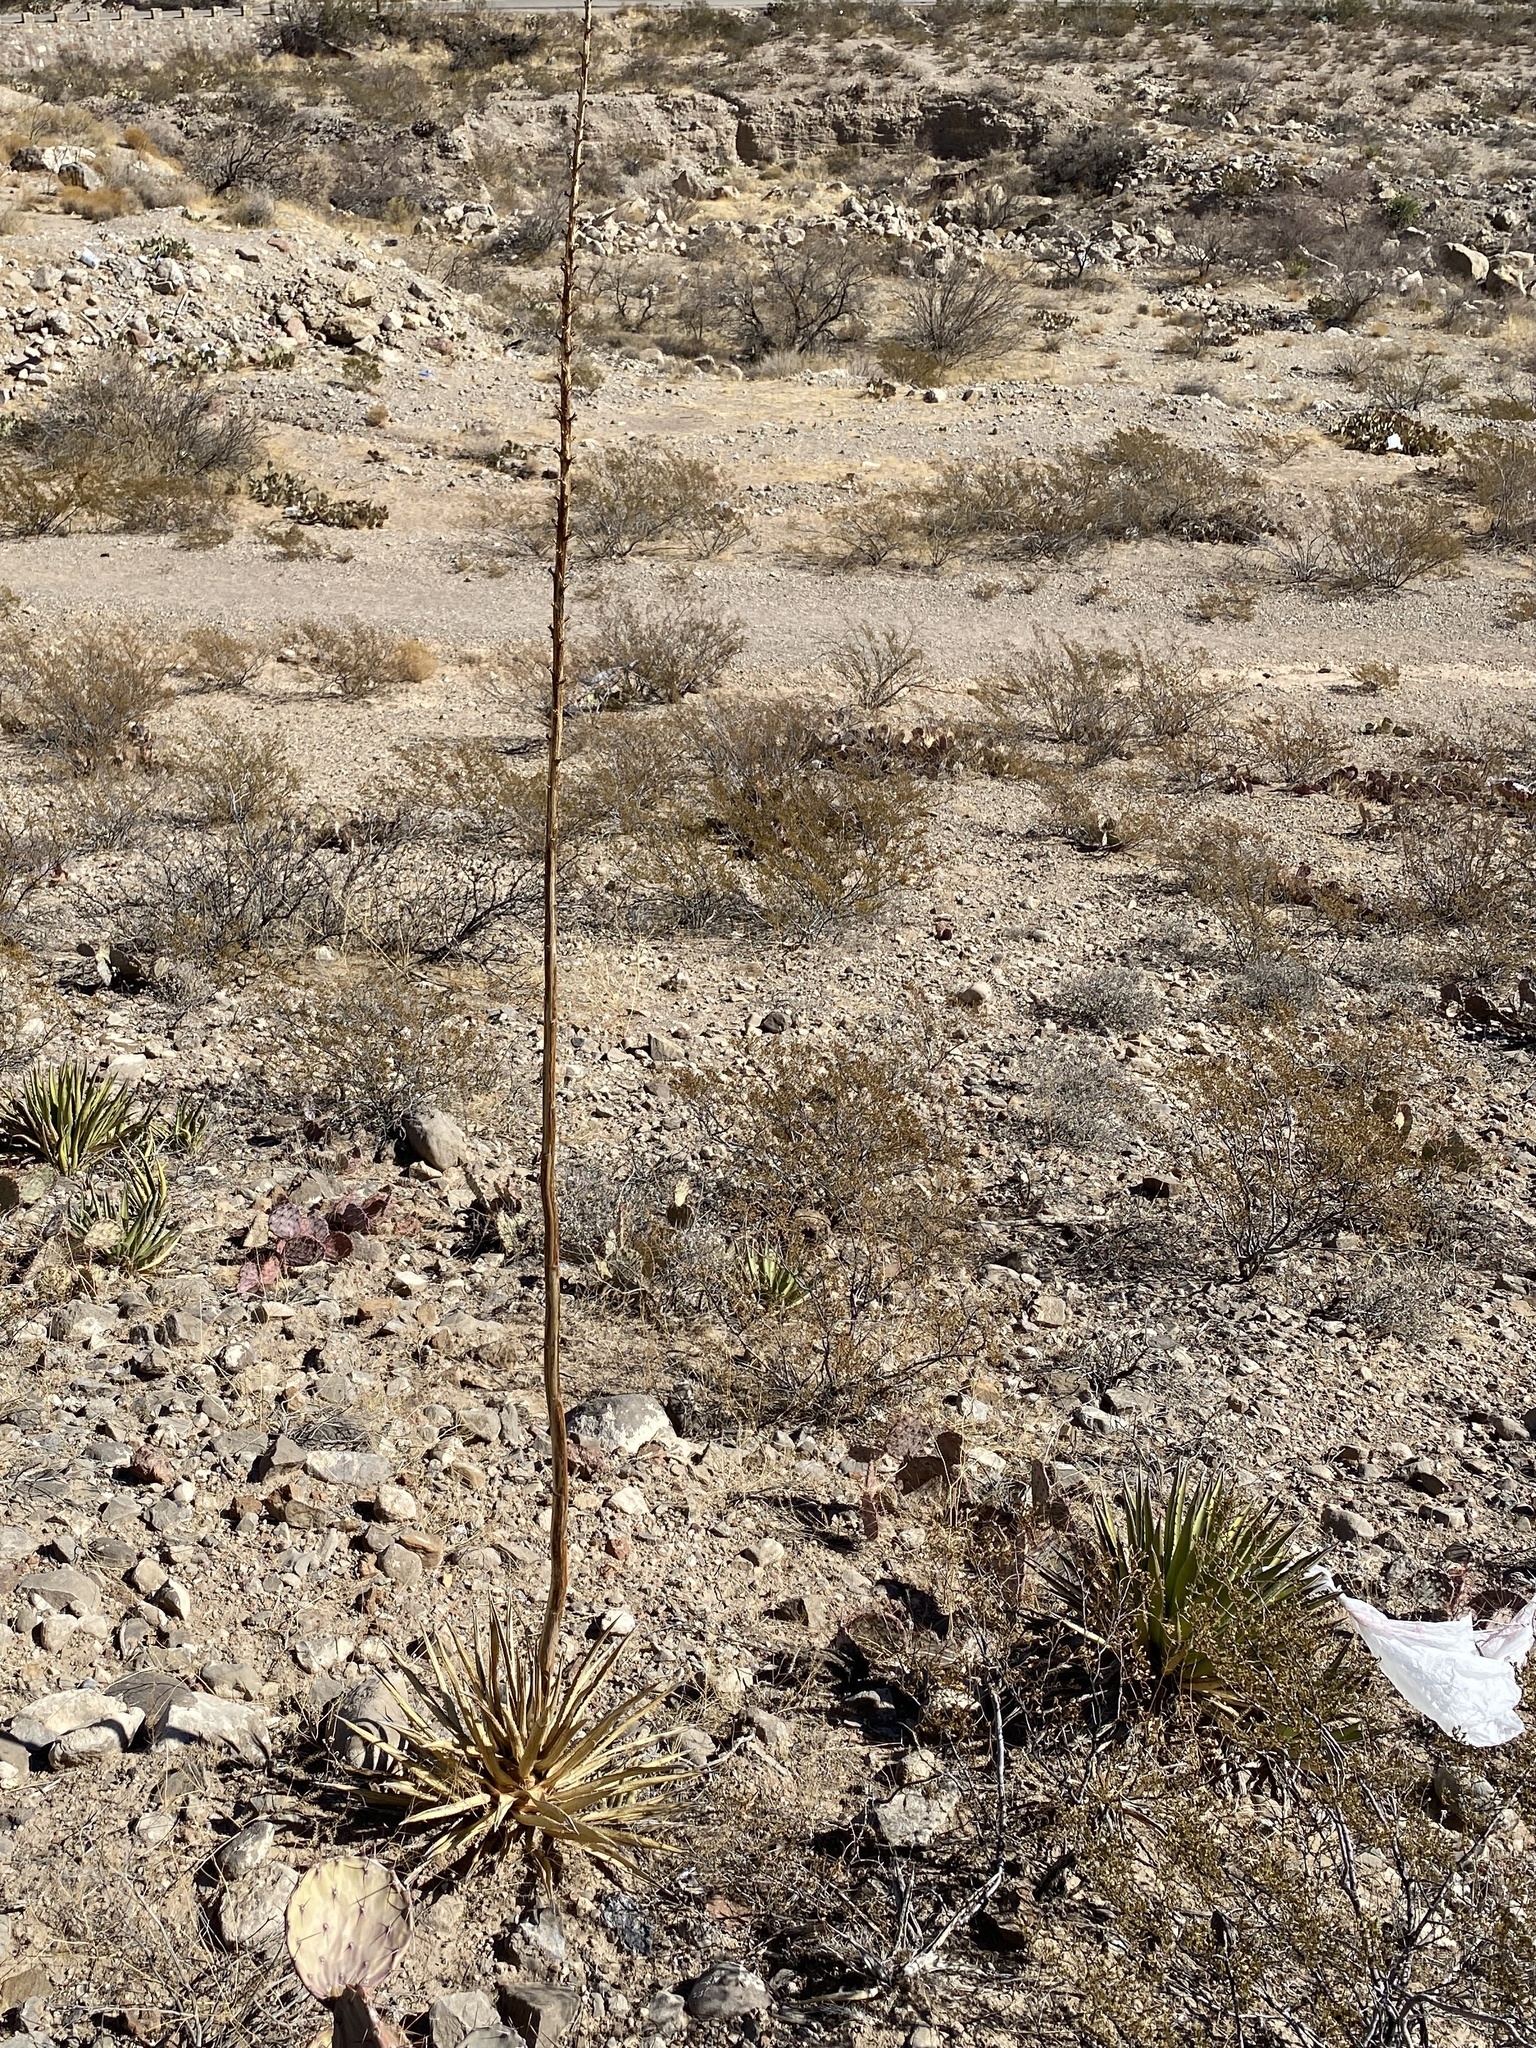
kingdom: Plantae
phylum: Tracheophyta
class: Liliopsida
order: Asparagales
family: Asparagaceae
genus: Agave
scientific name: Agave lechuguilla
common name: Lecheguilla agave
